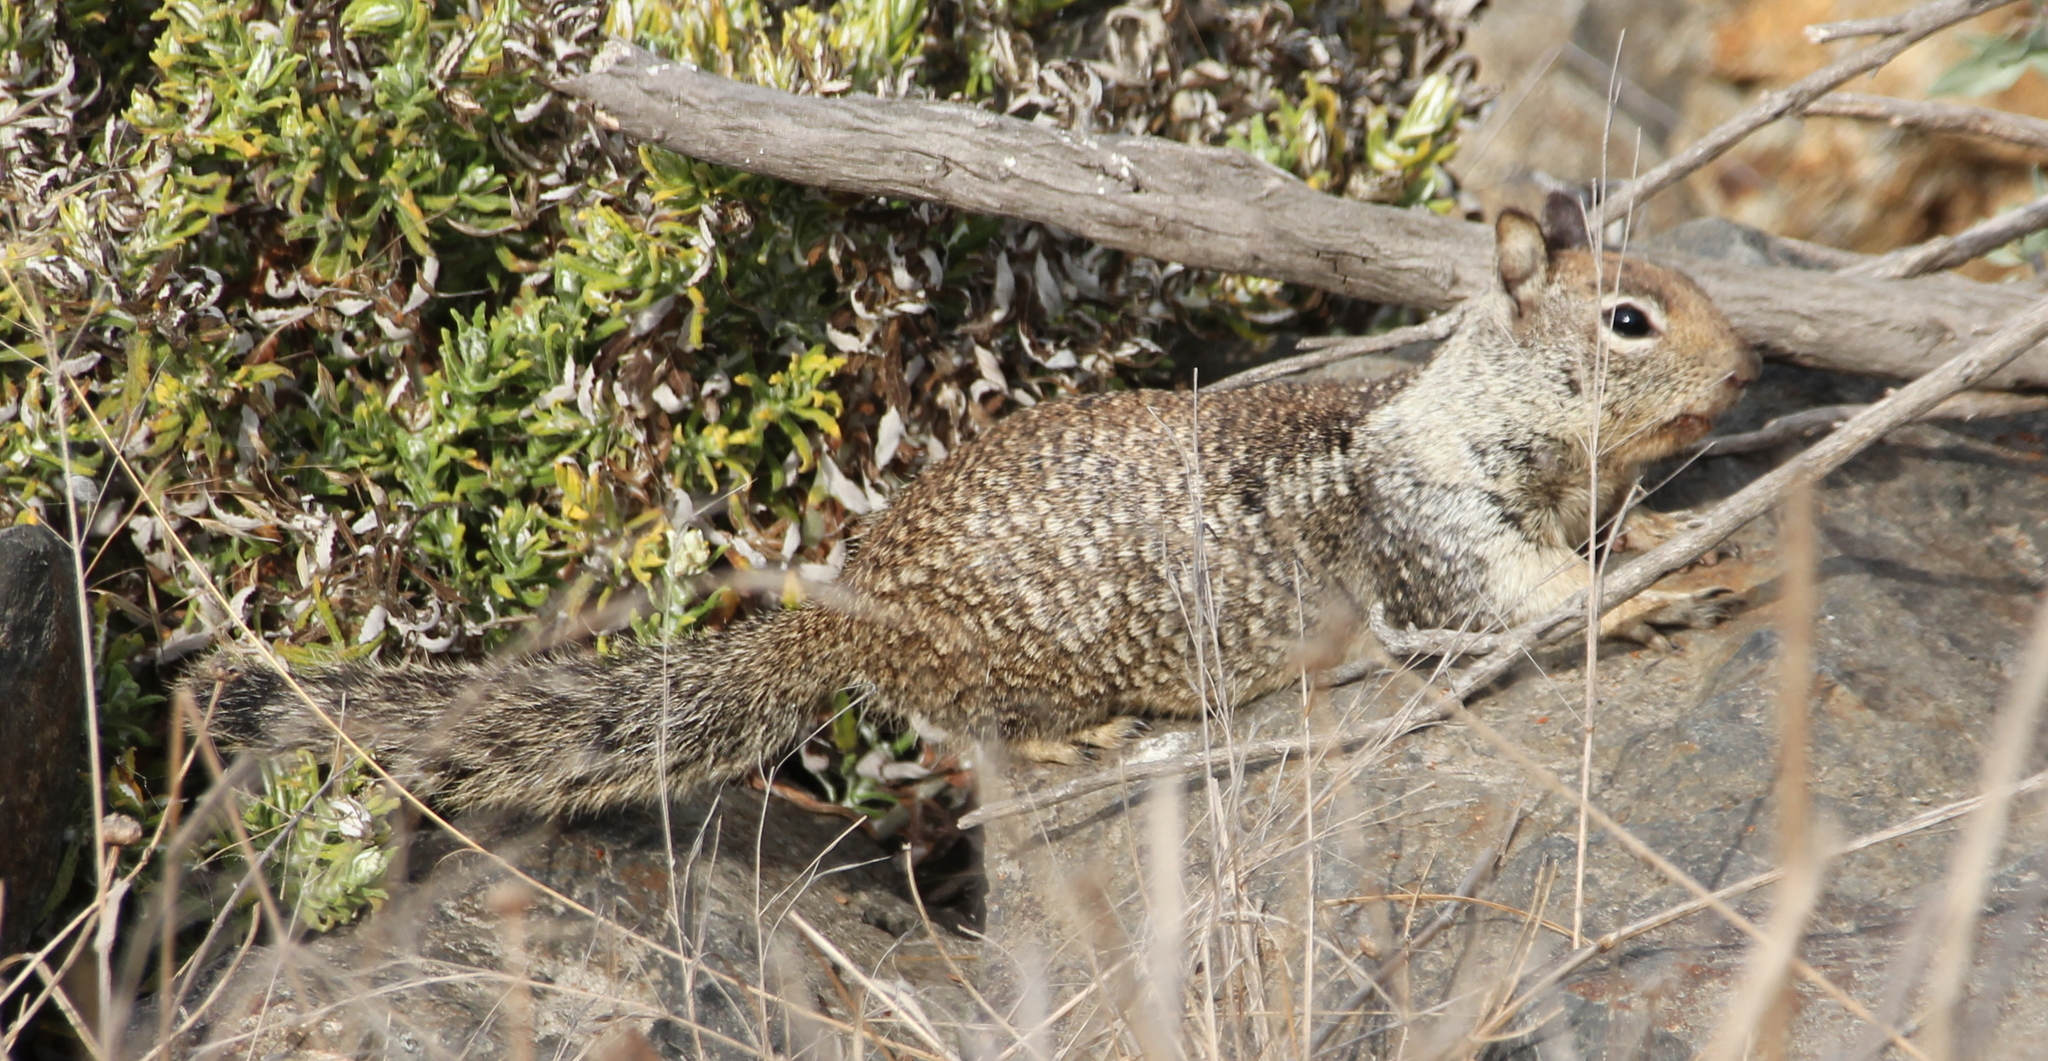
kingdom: Animalia
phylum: Chordata
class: Mammalia
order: Rodentia
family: Sciuridae
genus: Otospermophilus
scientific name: Otospermophilus beecheyi
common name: California ground squirrel
